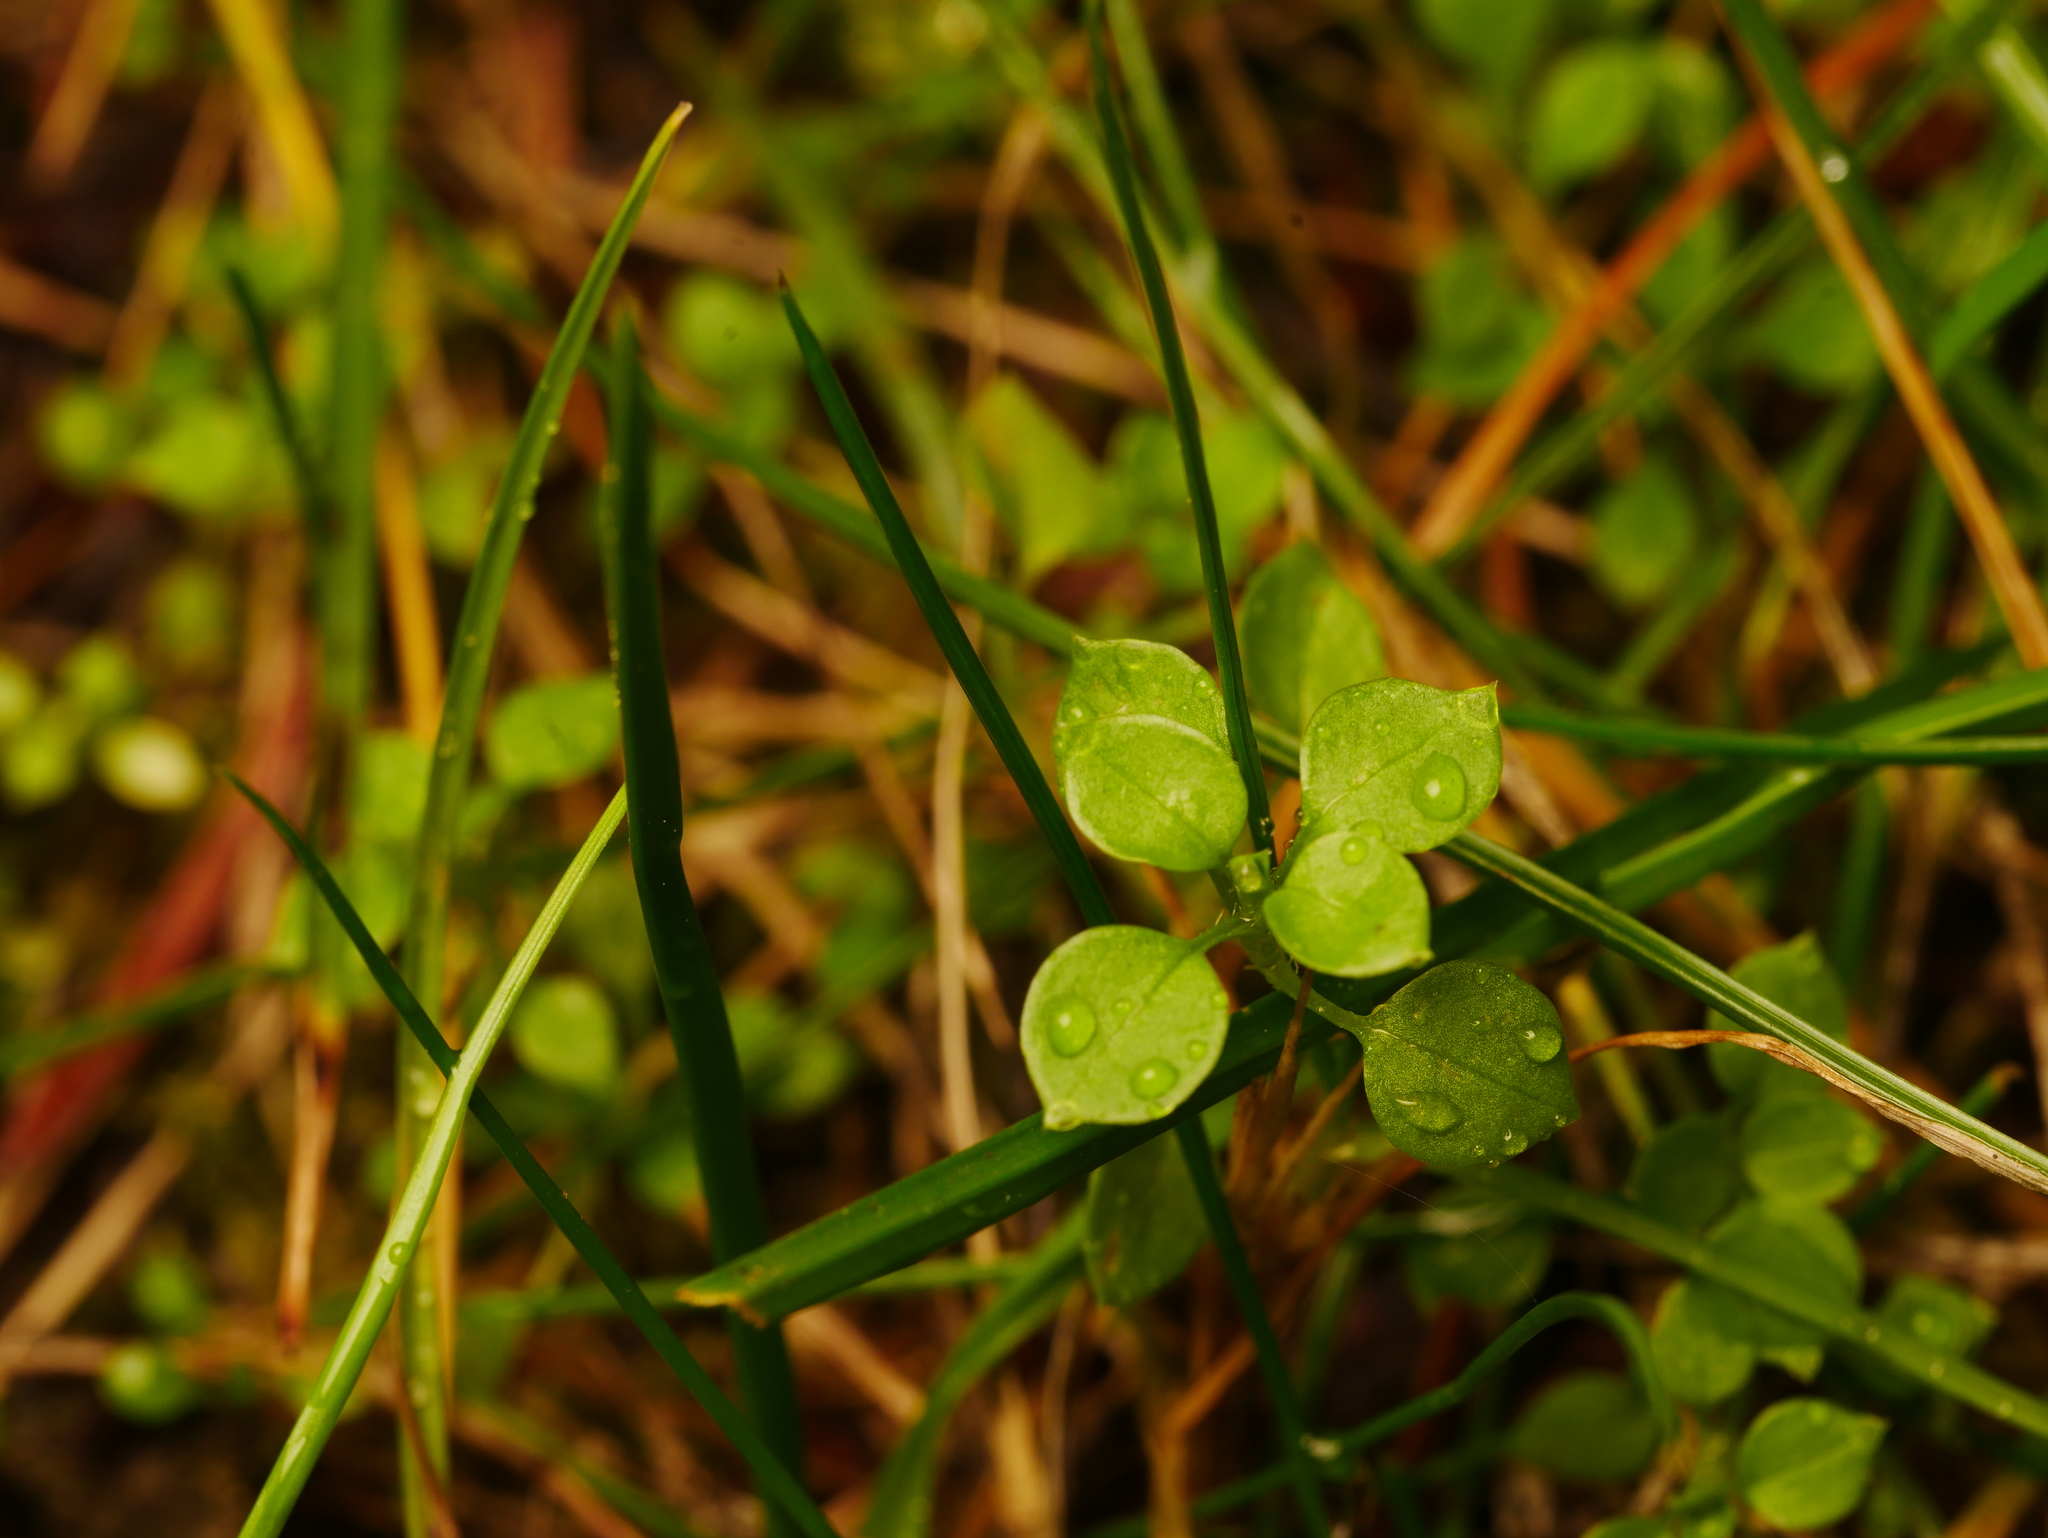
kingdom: Plantae
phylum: Tracheophyta
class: Magnoliopsida
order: Caryophyllales
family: Caryophyllaceae
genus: Stellaria
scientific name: Stellaria media
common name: Common chickweed
